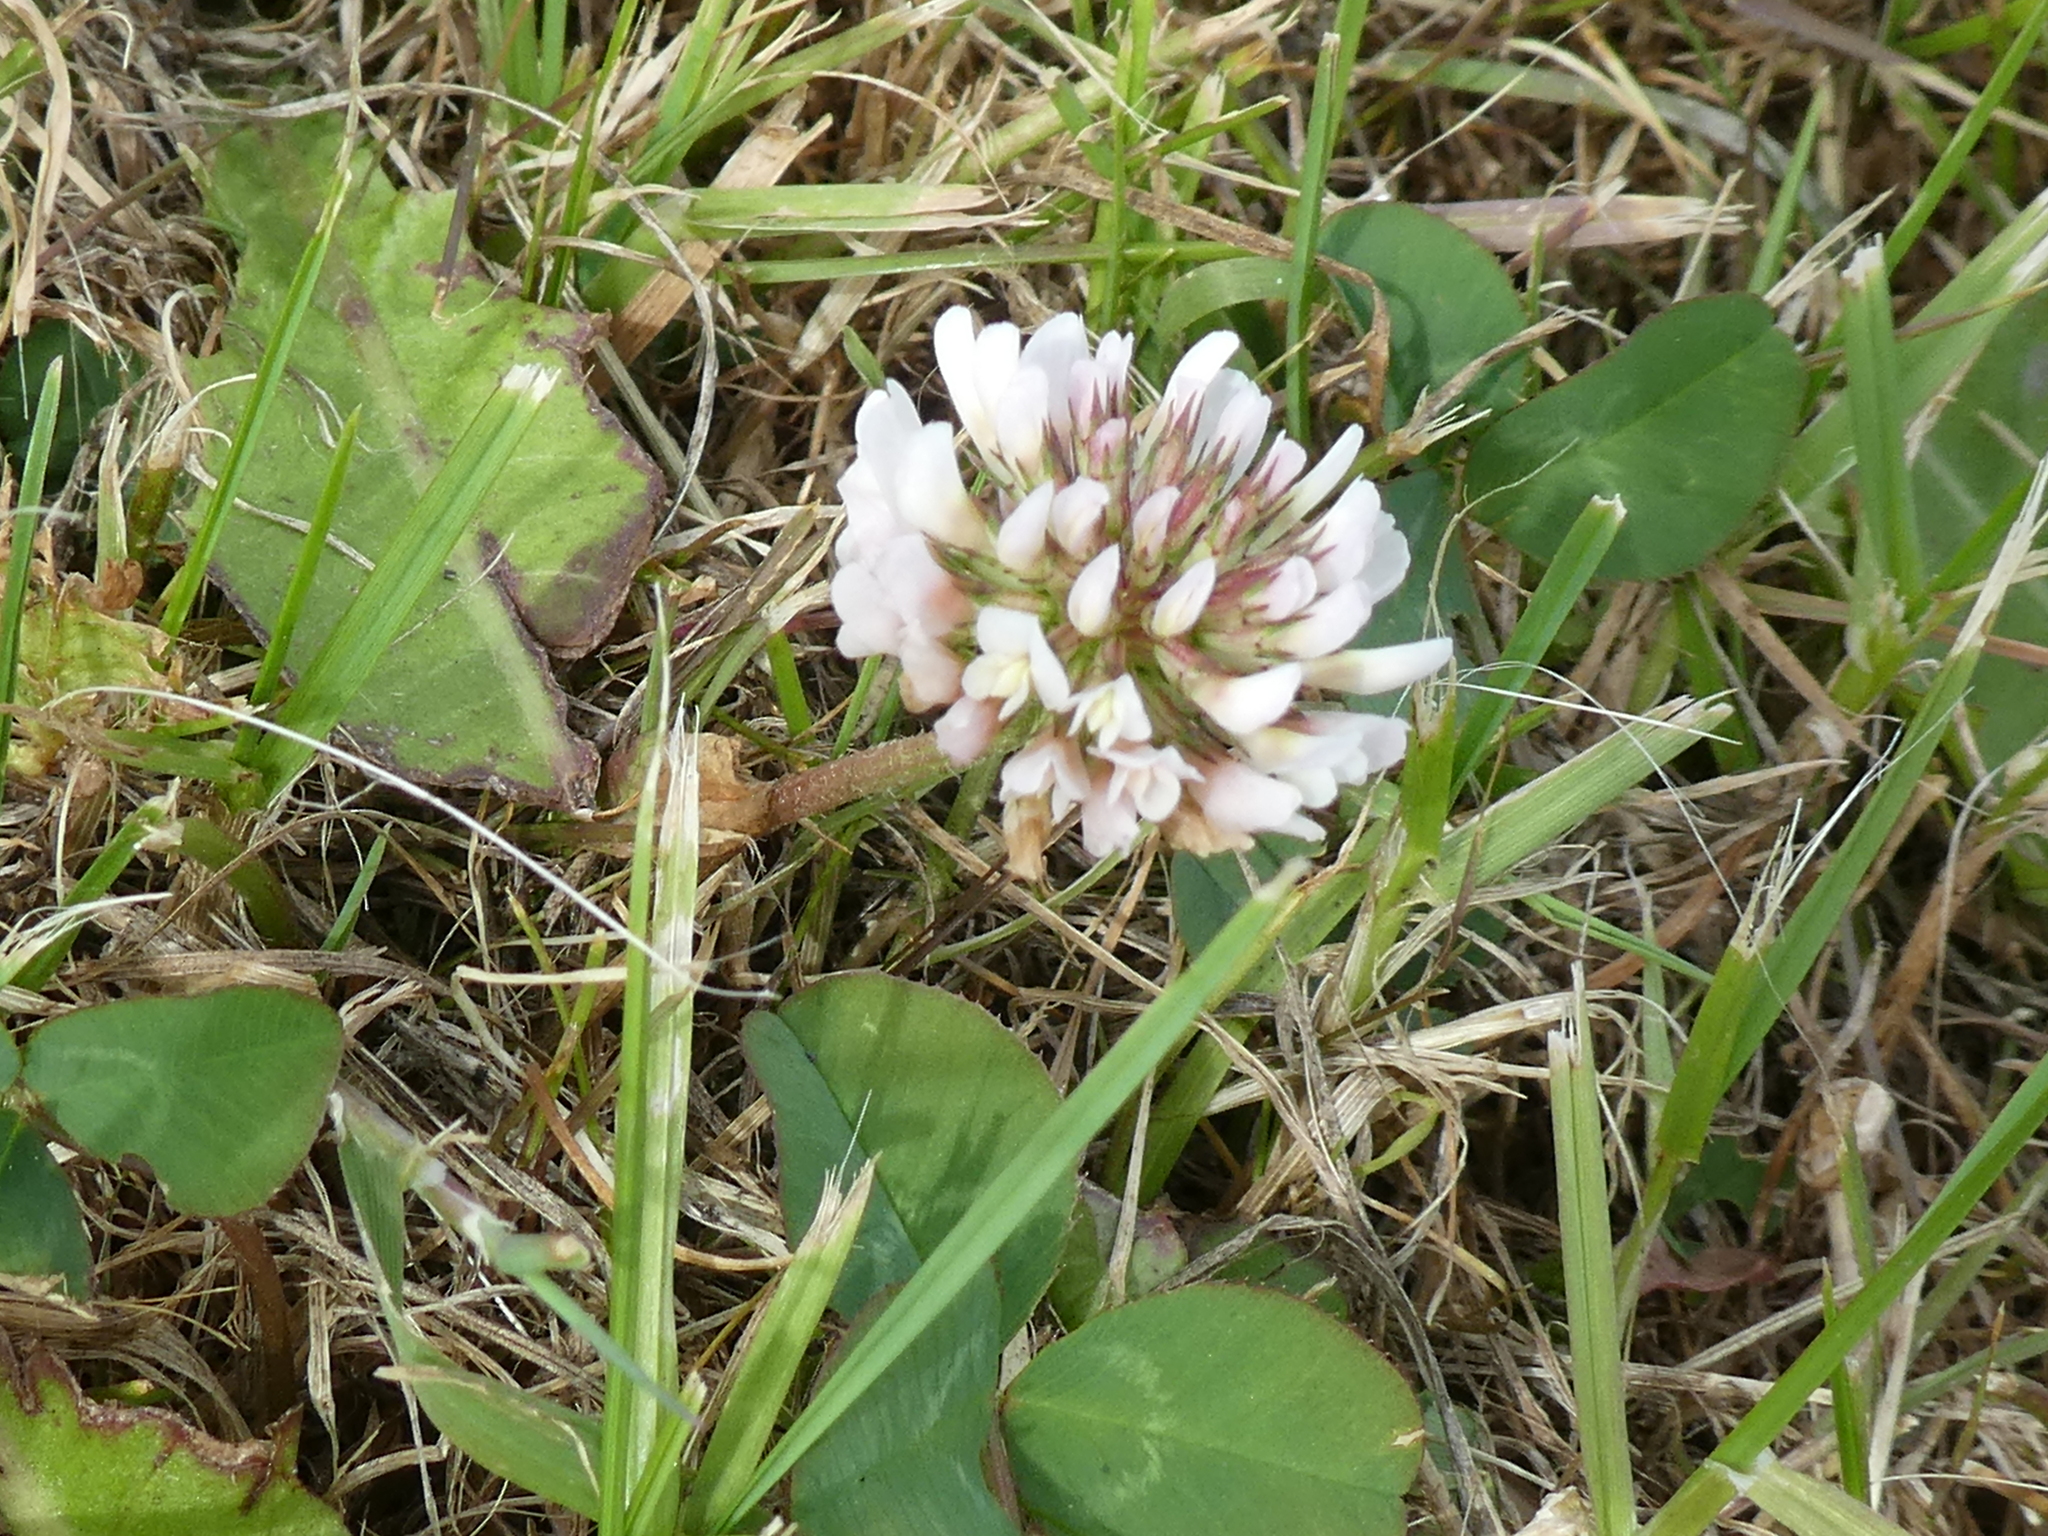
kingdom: Plantae
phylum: Tracheophyta
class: Magnoliopsida
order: Fabales
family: Fabaceae
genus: Trifolium
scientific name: Trifolium repens
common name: White clover
